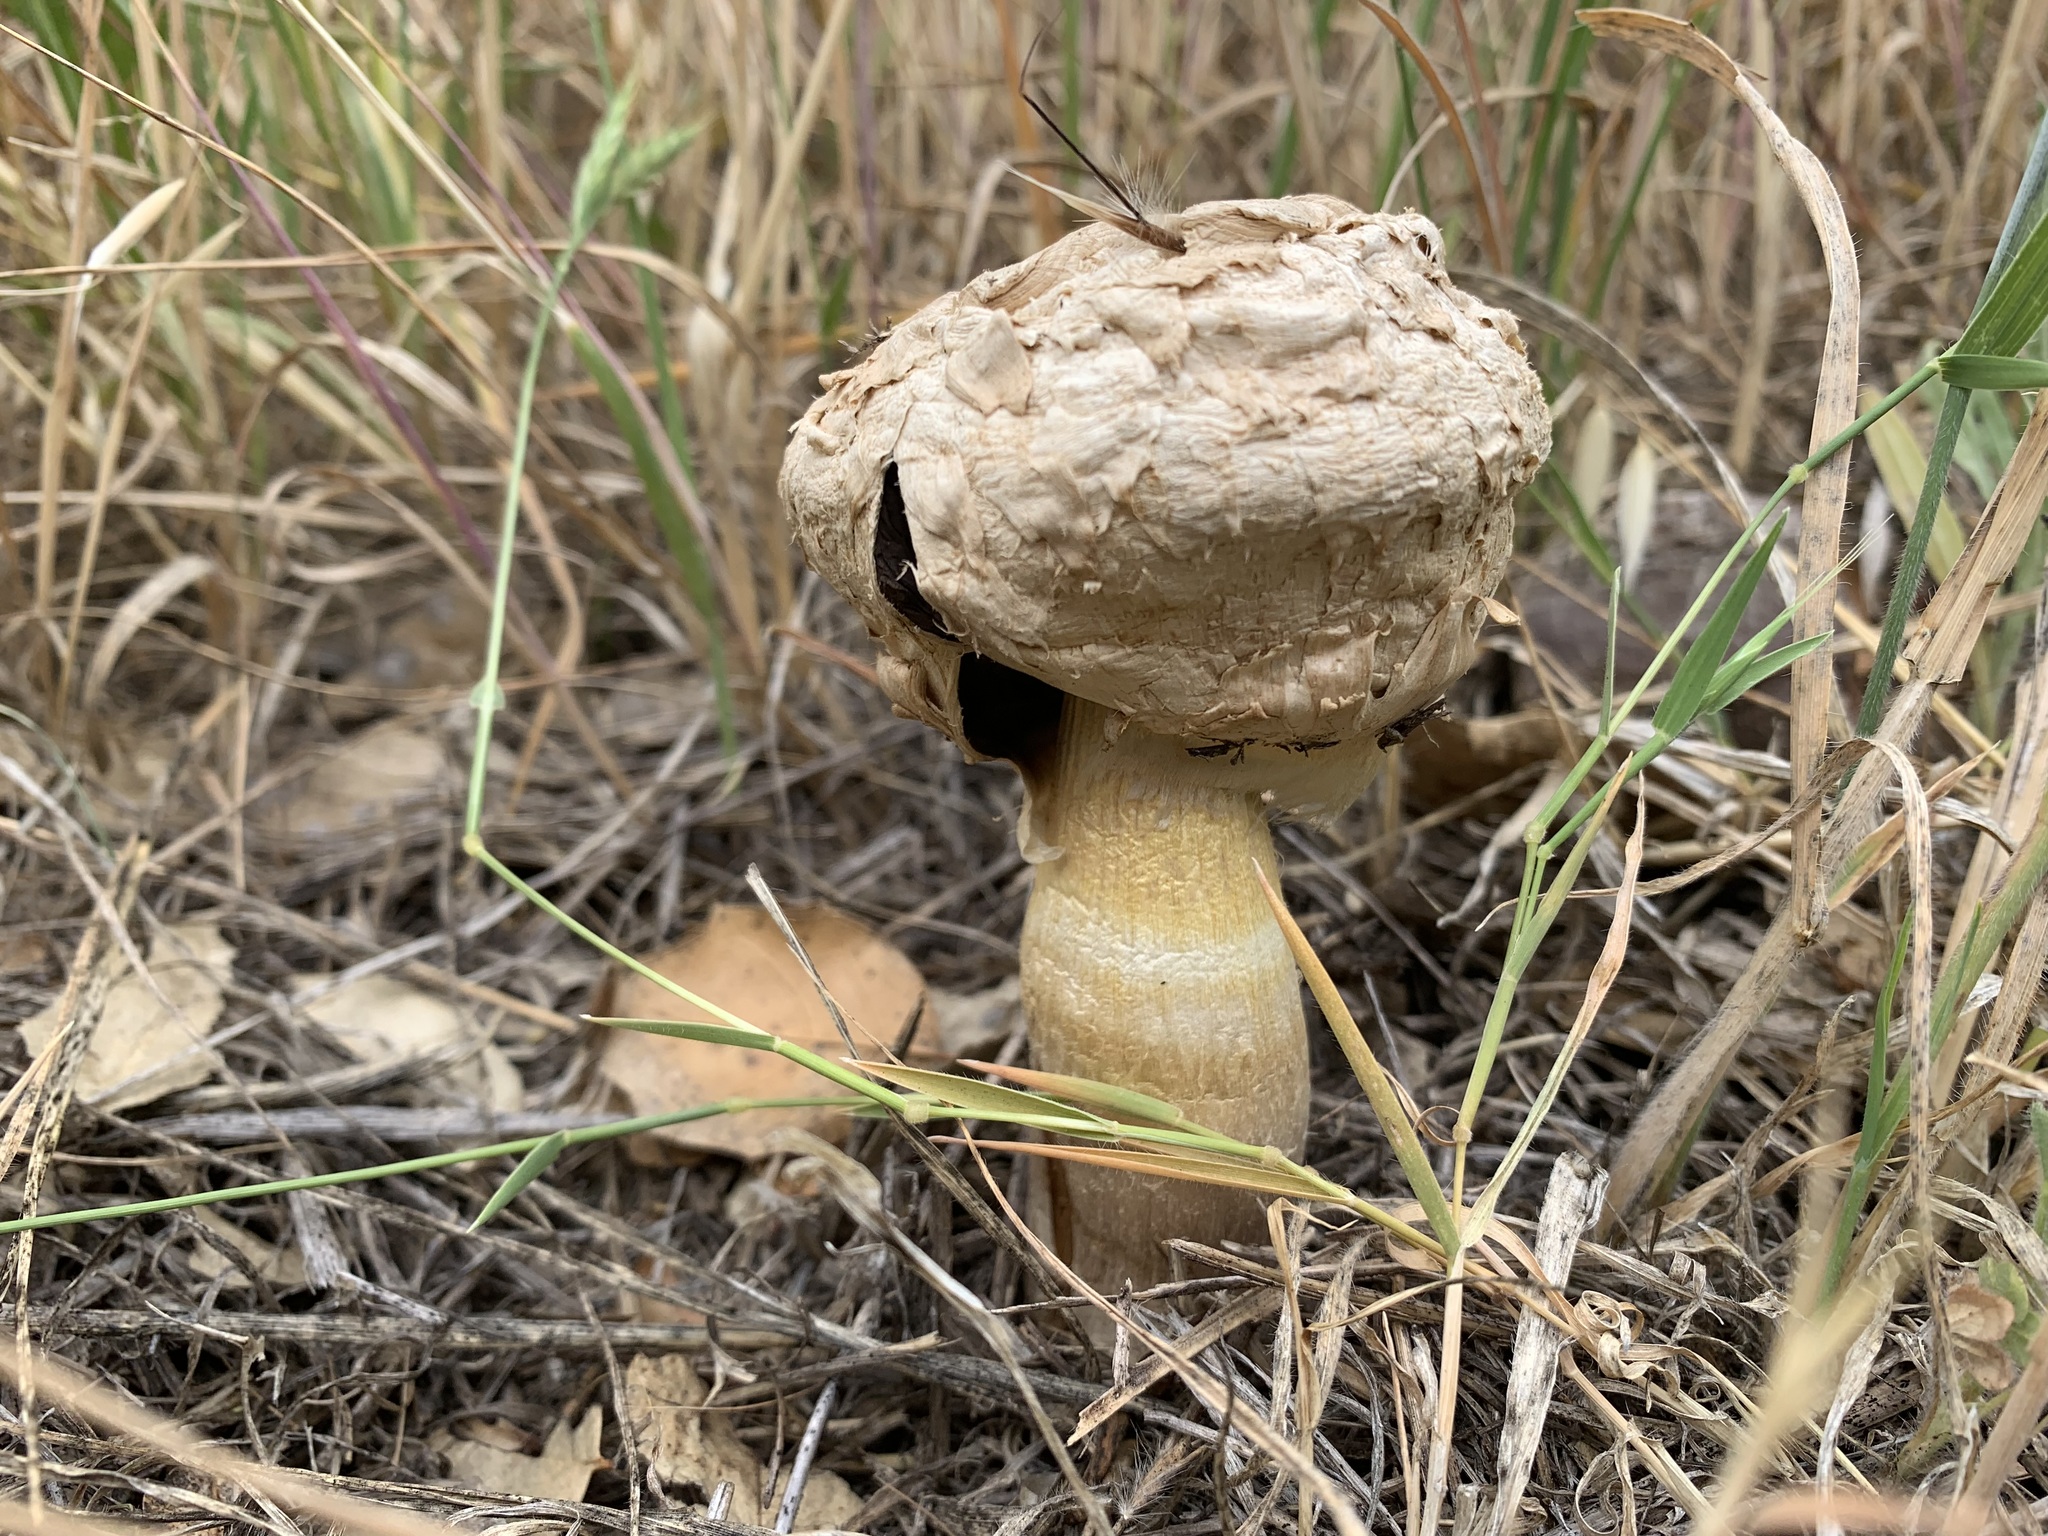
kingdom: Fungi
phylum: Basidiomycota
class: Agaricomycetes
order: Agaricales
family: Agaricaceae
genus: Agaricus
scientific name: Agaricus deserticola
